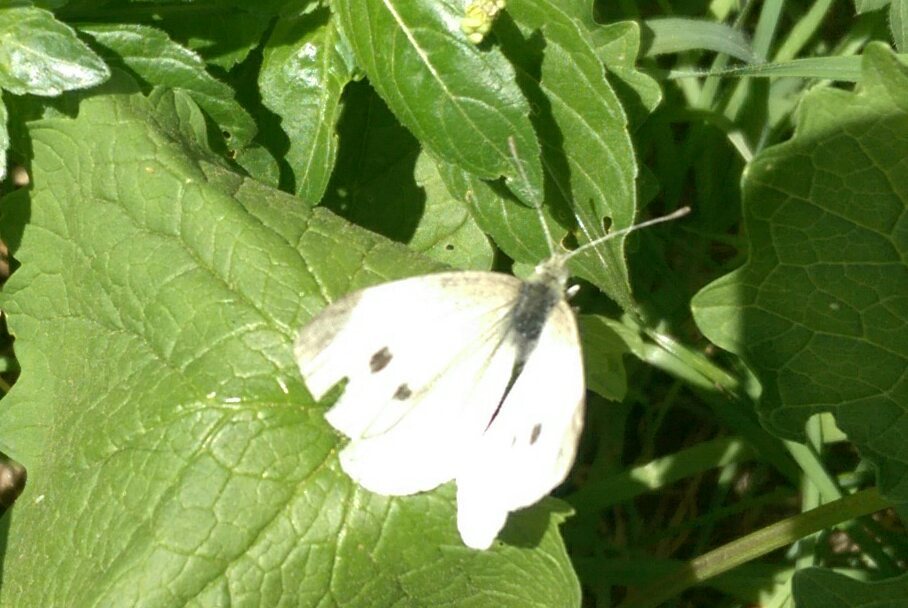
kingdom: Animalia
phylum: Arthropoda
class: Insecta
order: Lepidoptera
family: Pieridae
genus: Pieris
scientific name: Pieris rapae
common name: Small white
